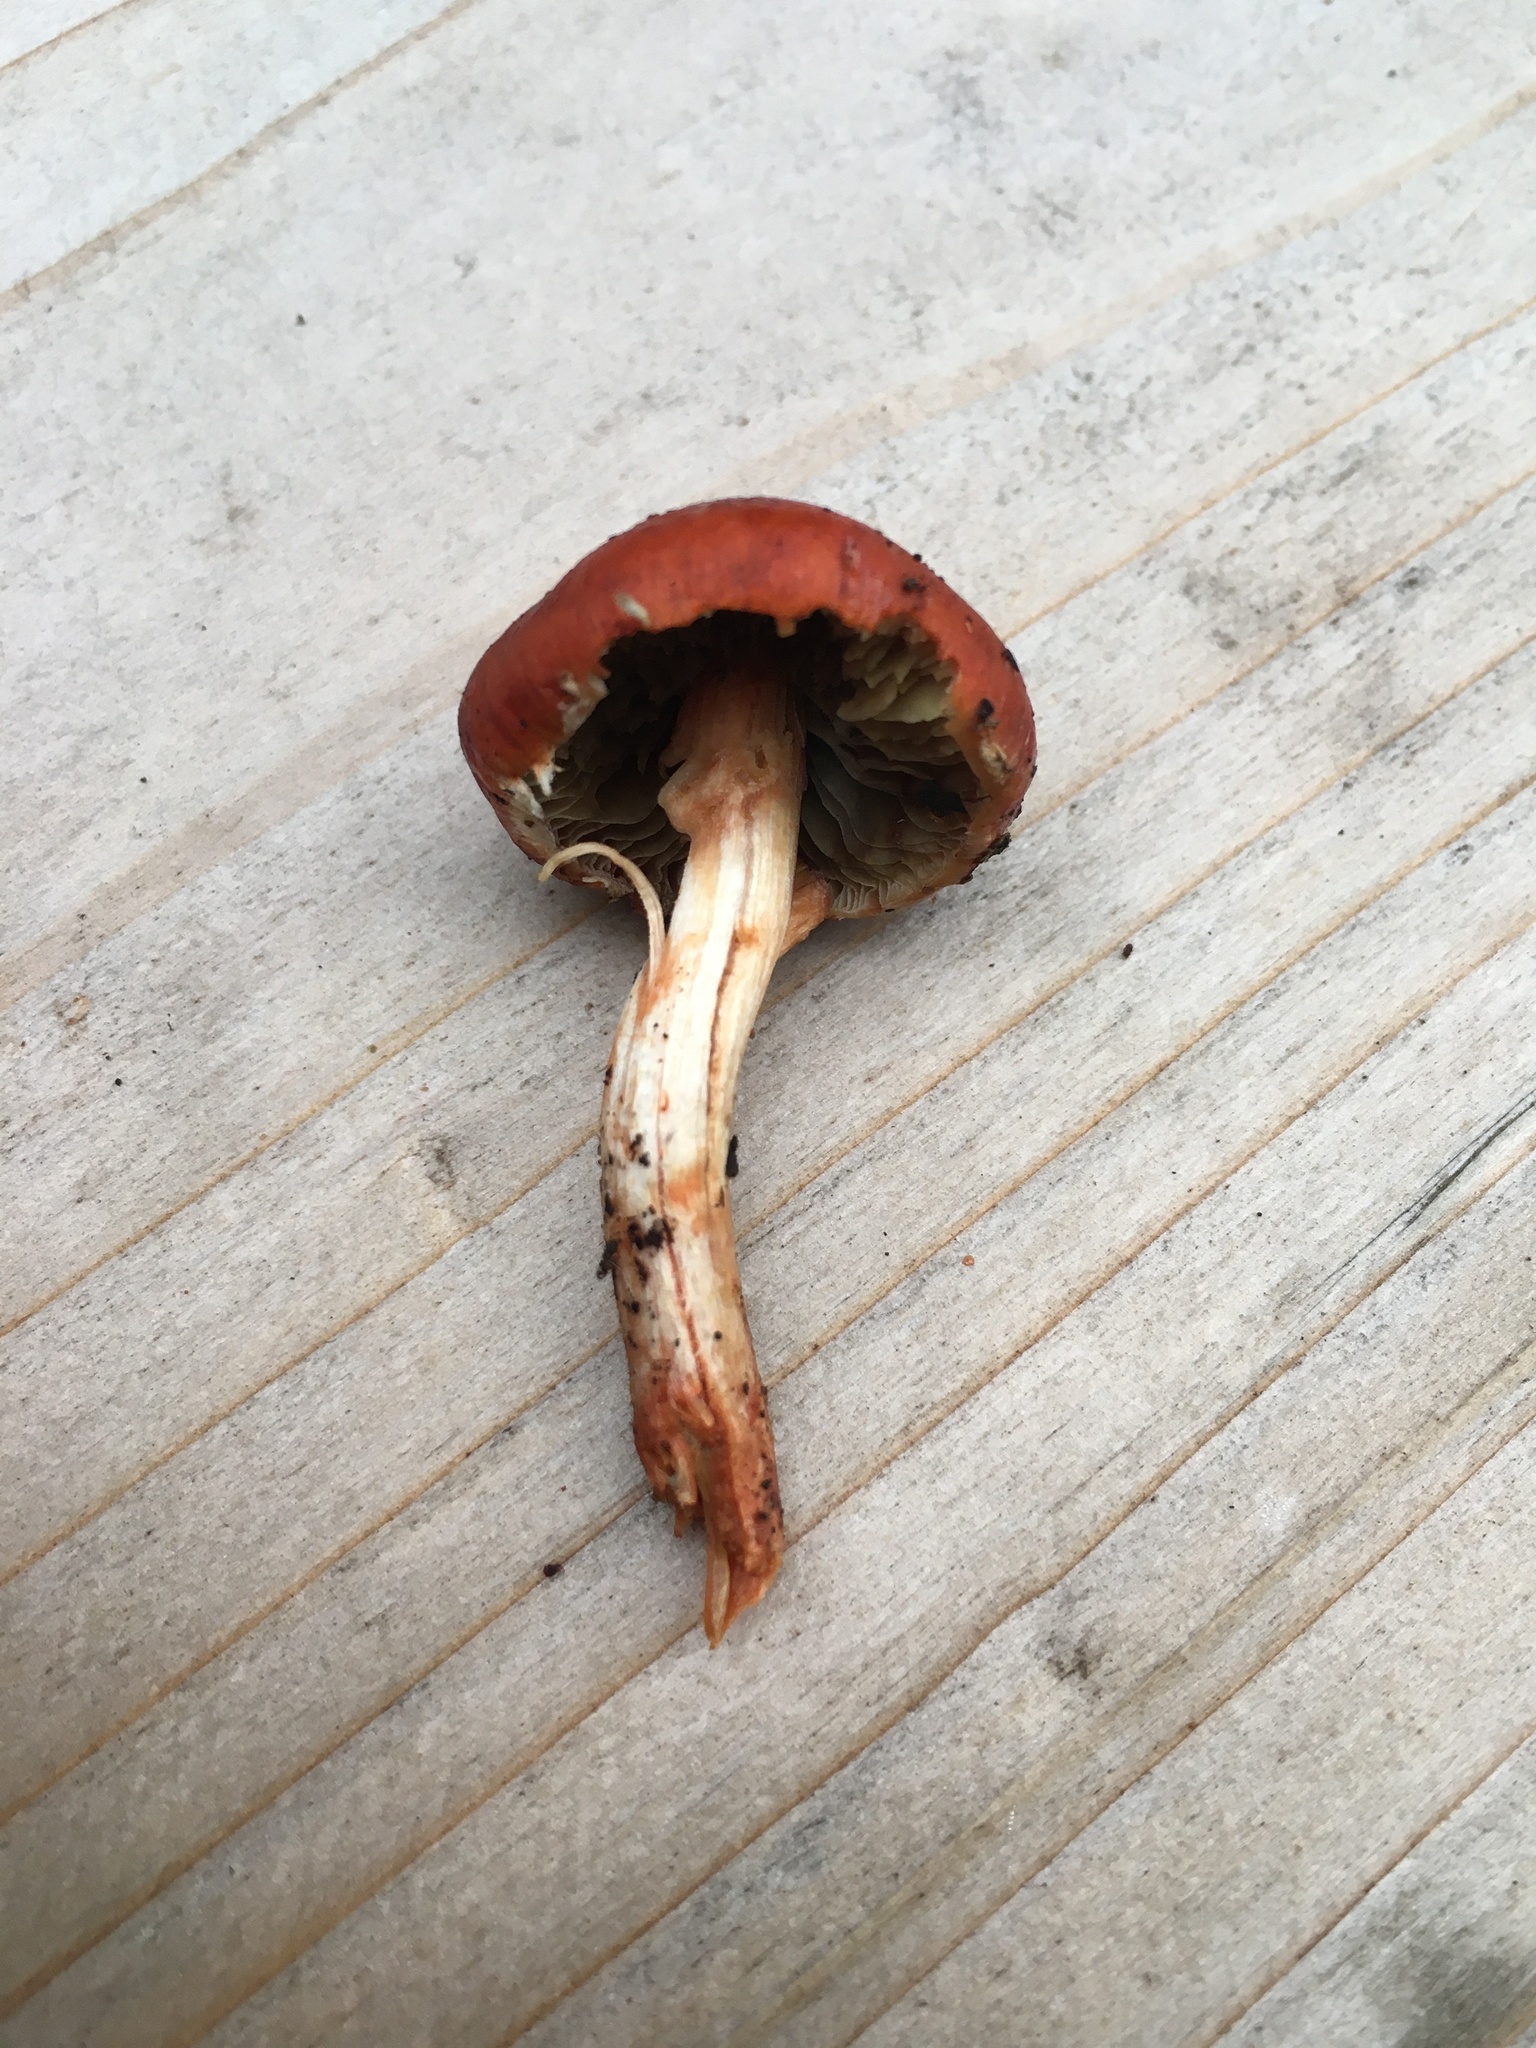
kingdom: Fungi
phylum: Basidiomycota
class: Agaricomycetes
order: Agaricales
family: Strophariaceae
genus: Leratiomyces
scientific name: Leratiomyces ceres
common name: Redlead roundhead
